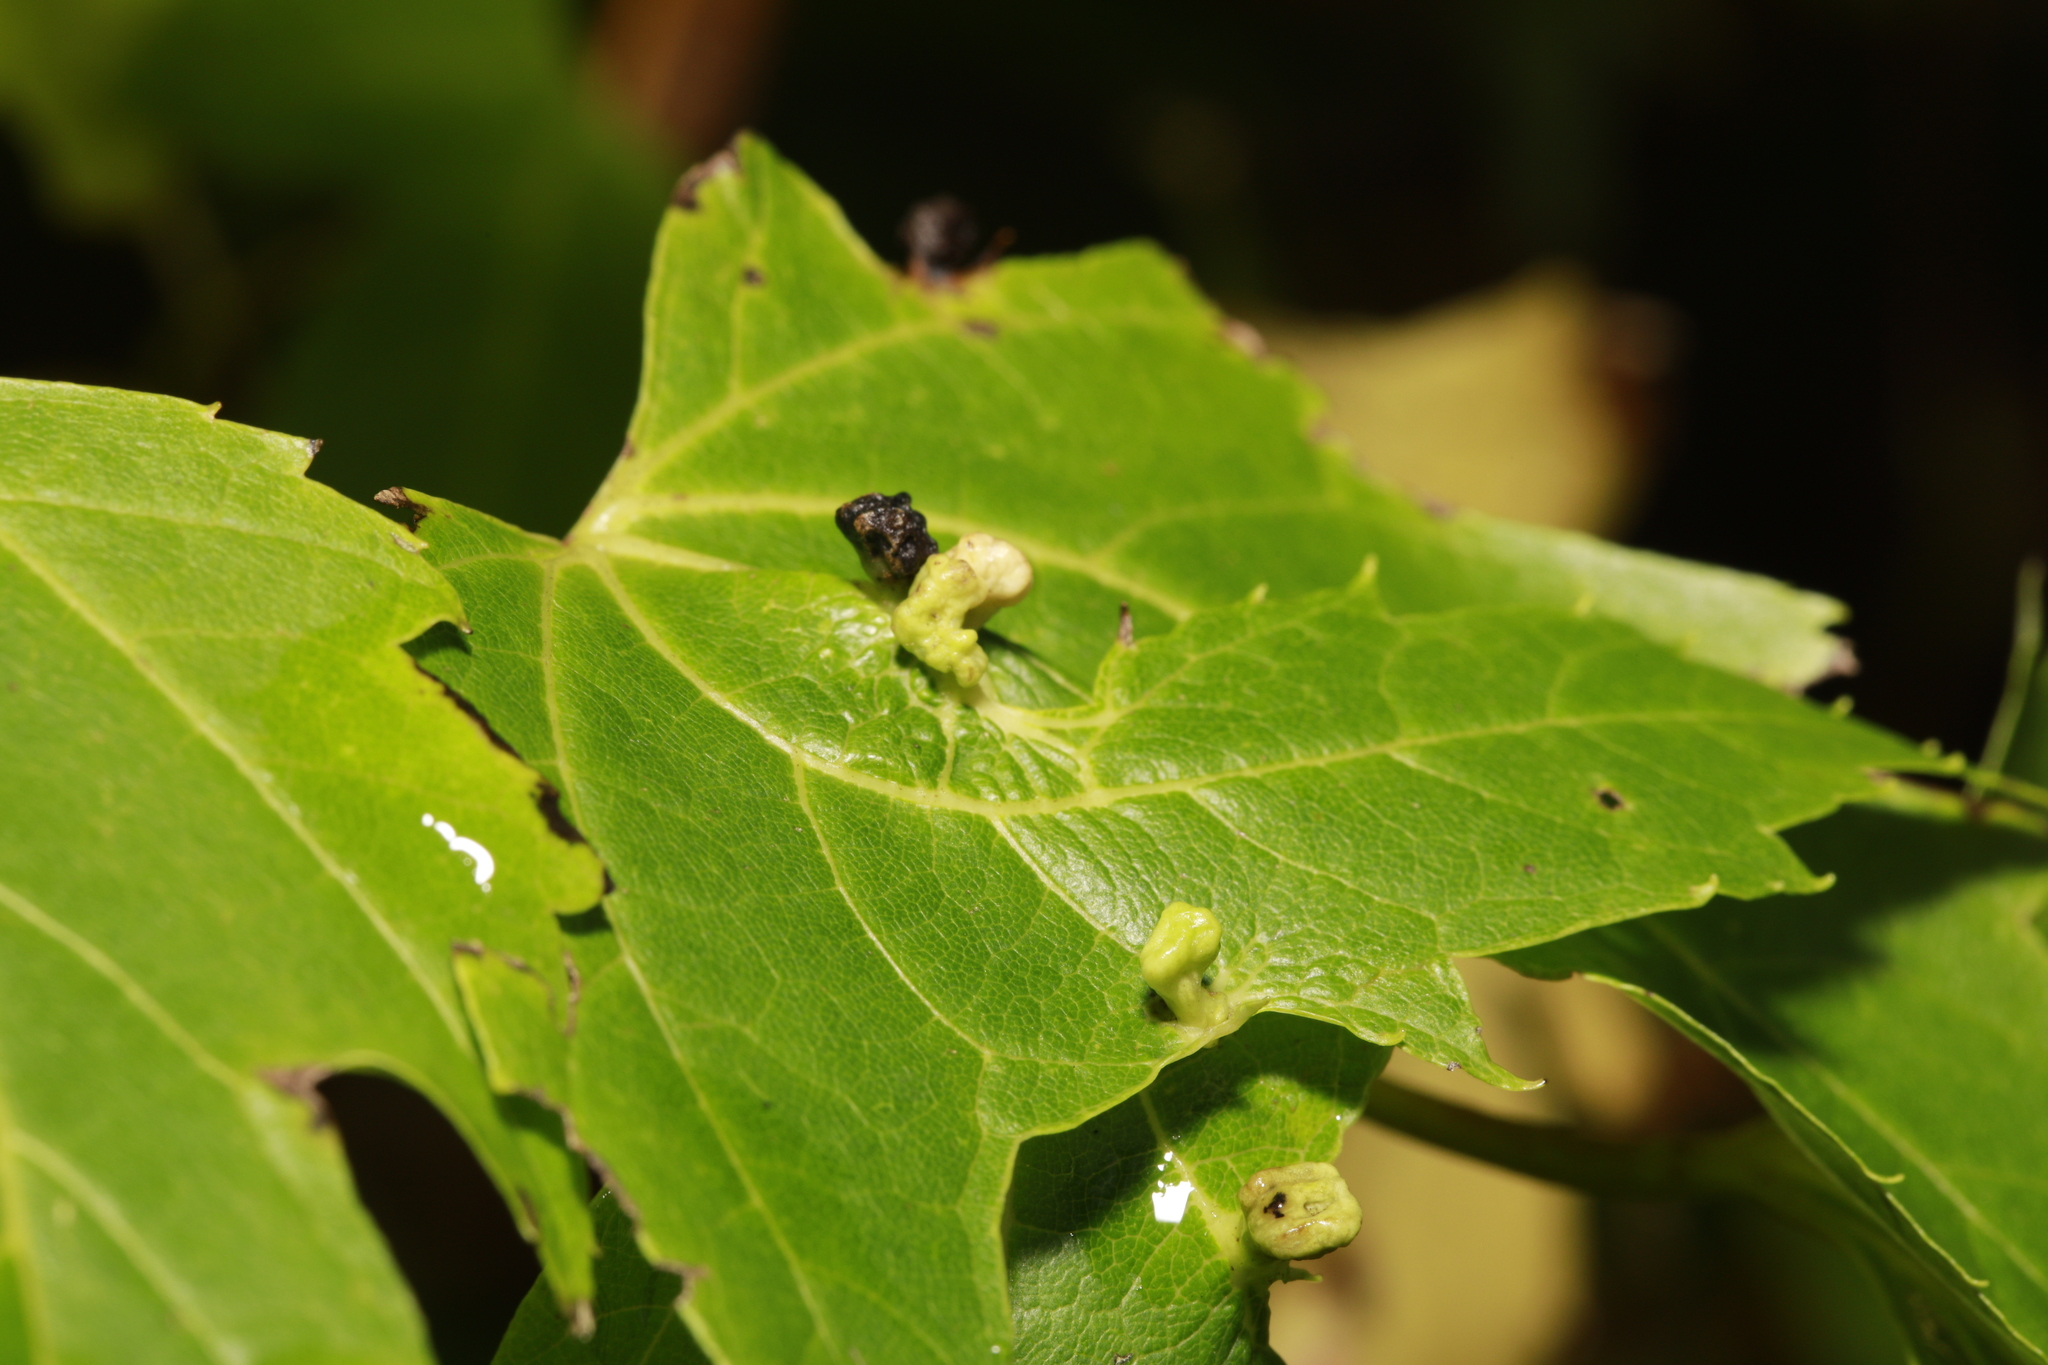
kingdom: Animalia
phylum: Arthropoda
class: Arachnida
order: Trombidiformes
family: Eriophyidae
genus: Vasates
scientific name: Vasates quadripedes
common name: Maple bladder gall mite
